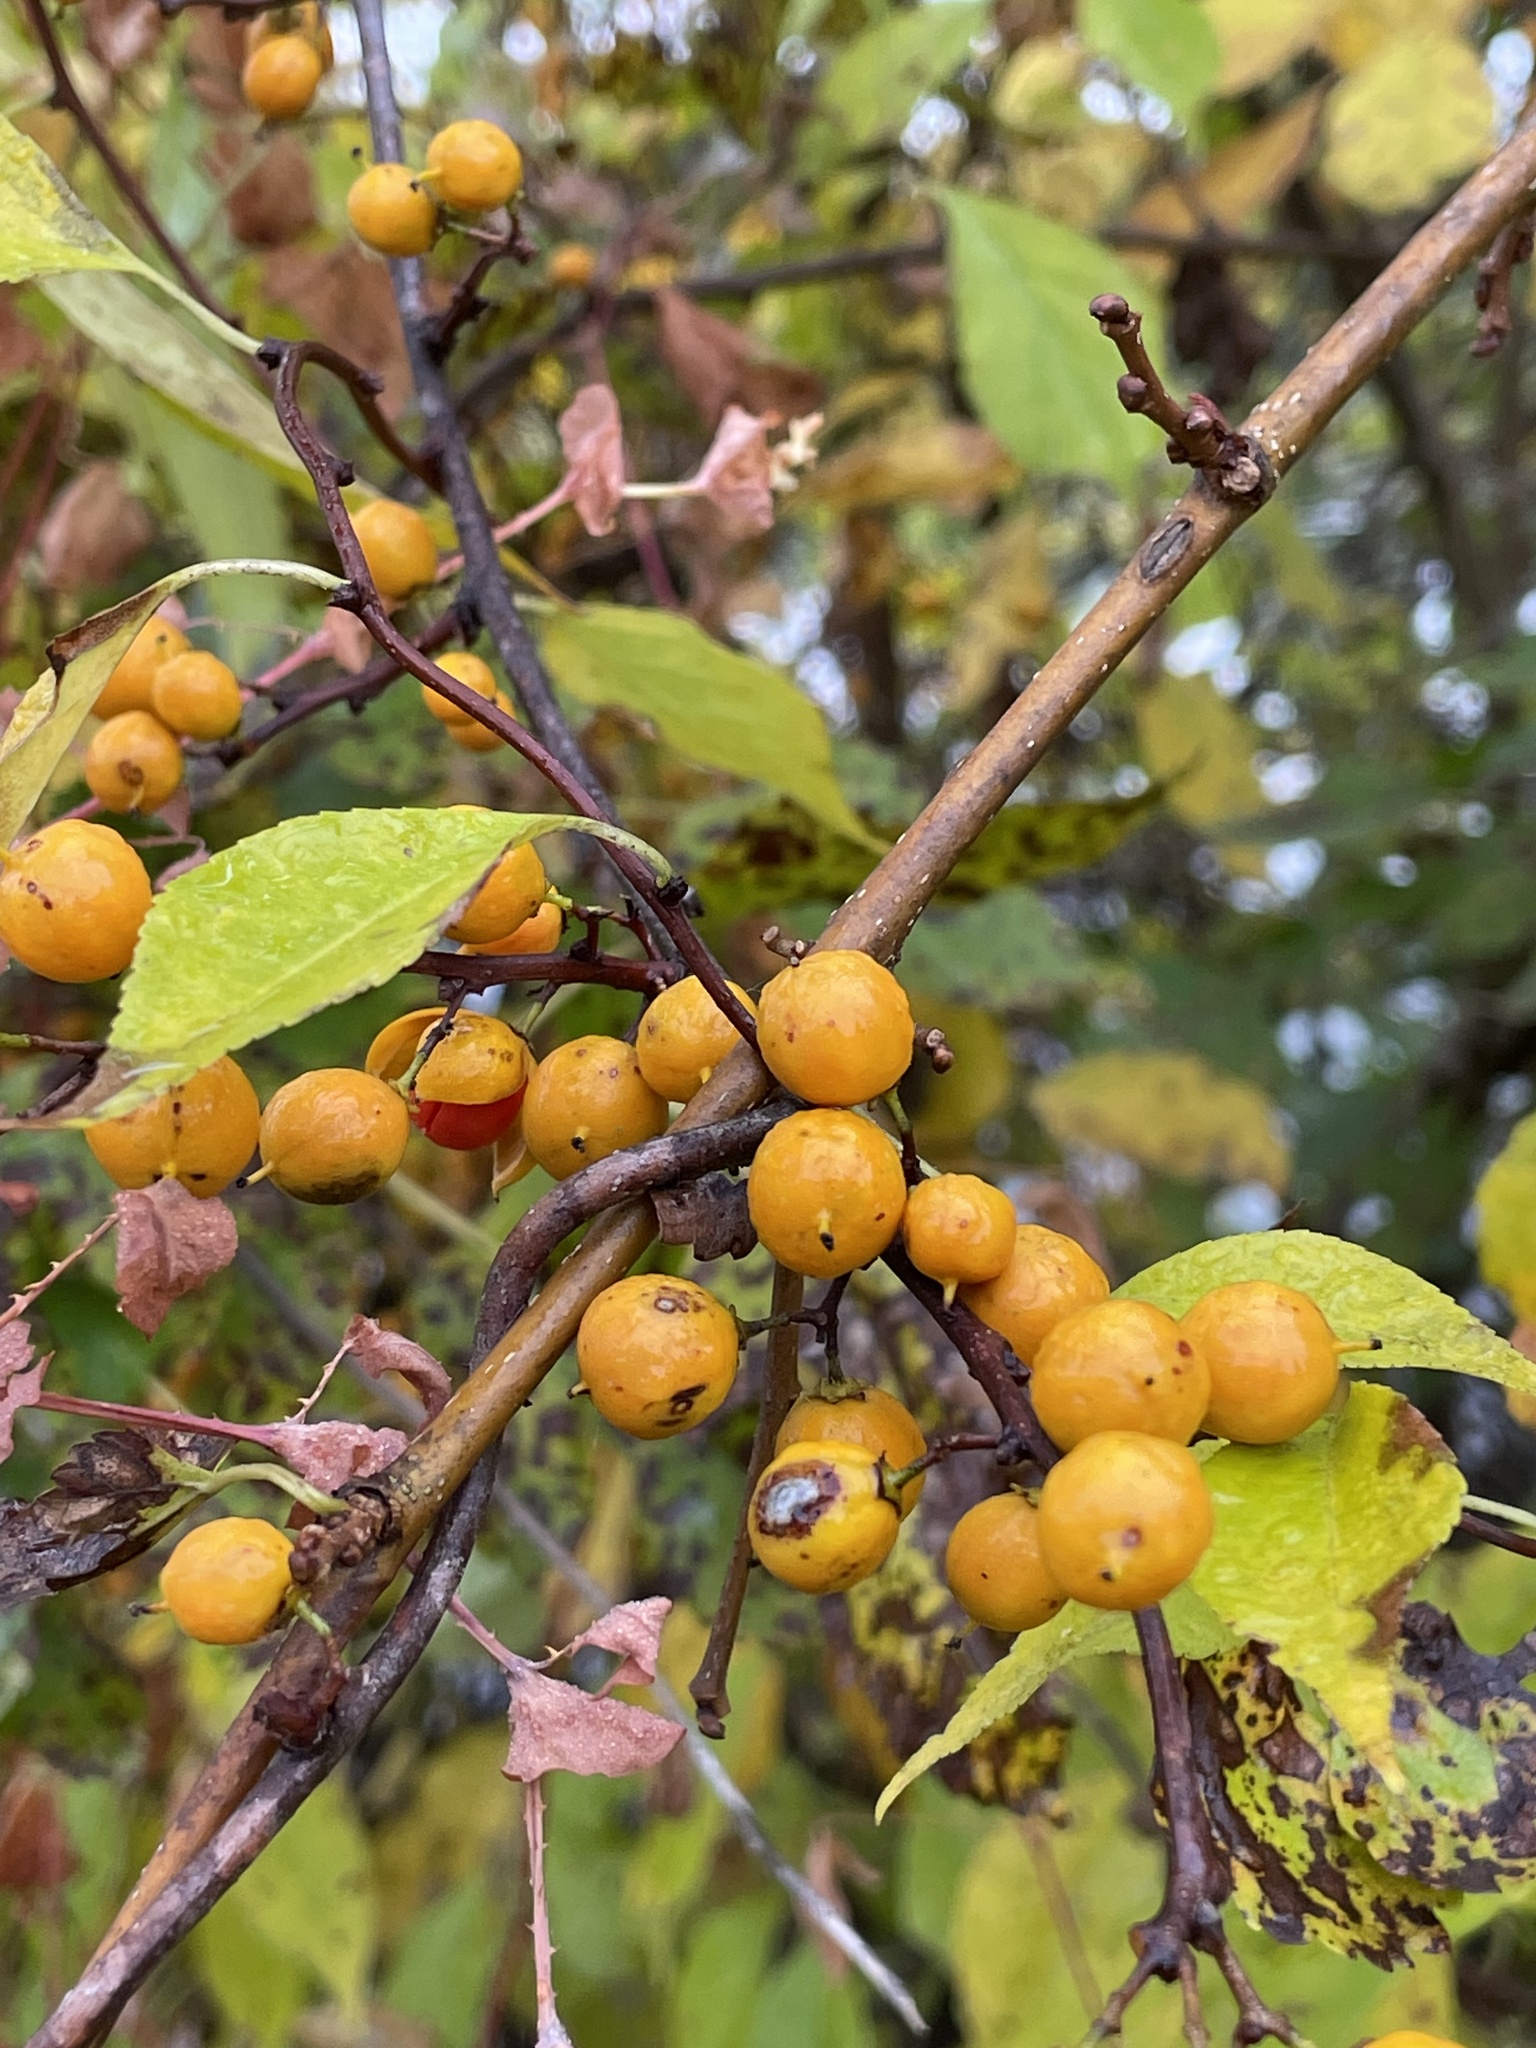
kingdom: Plantae
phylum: Tracheophyta
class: Magnoliopsida
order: Celastrales
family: Celastraceae
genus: Celastrus
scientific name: Celastrus orbiculatus
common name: Oriental bittersweet
